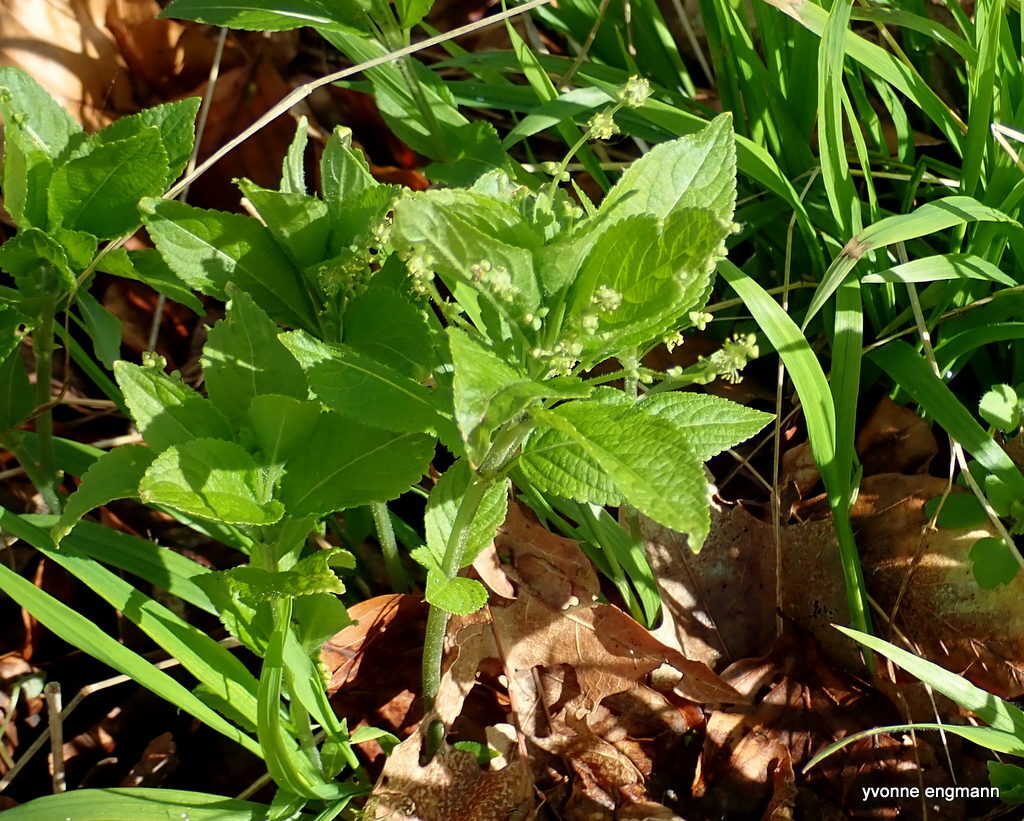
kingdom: Plantae
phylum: Tracheophyta
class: Magnoliopsida
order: Malpighiales
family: Euphorbiaceae
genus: Mercurialis
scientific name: Mercurialis perennis
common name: Dog mercury
